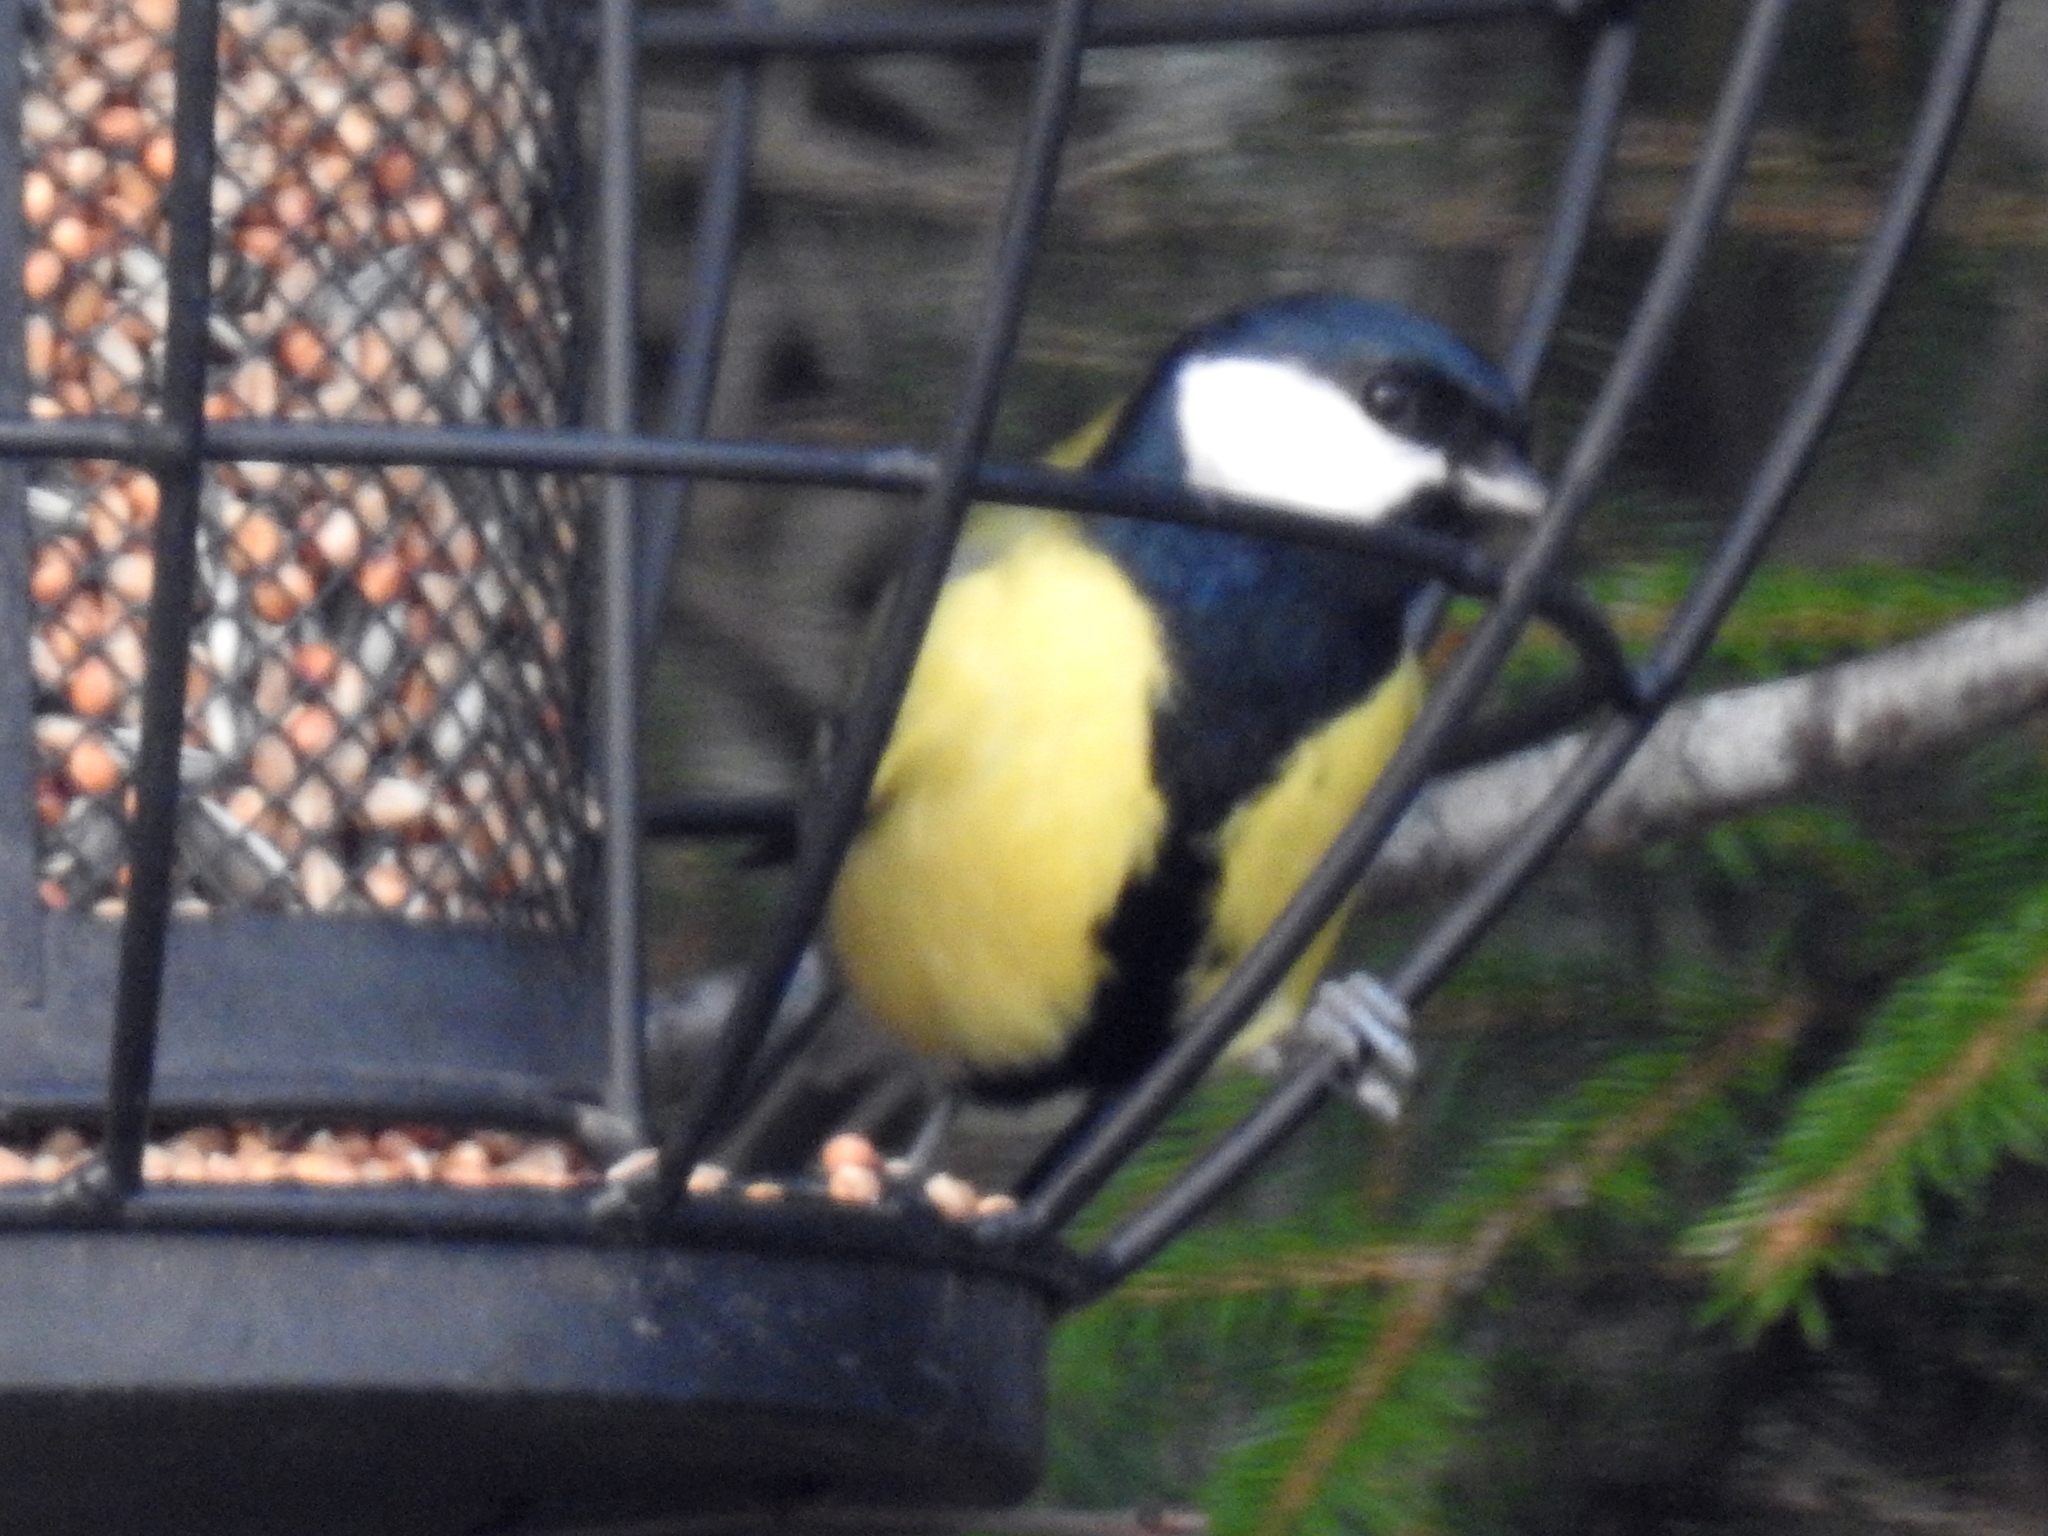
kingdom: Animalia
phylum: Chordata
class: Aves
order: Passeriformes
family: Paridae
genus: Parus
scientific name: Parus major
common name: Great tit
